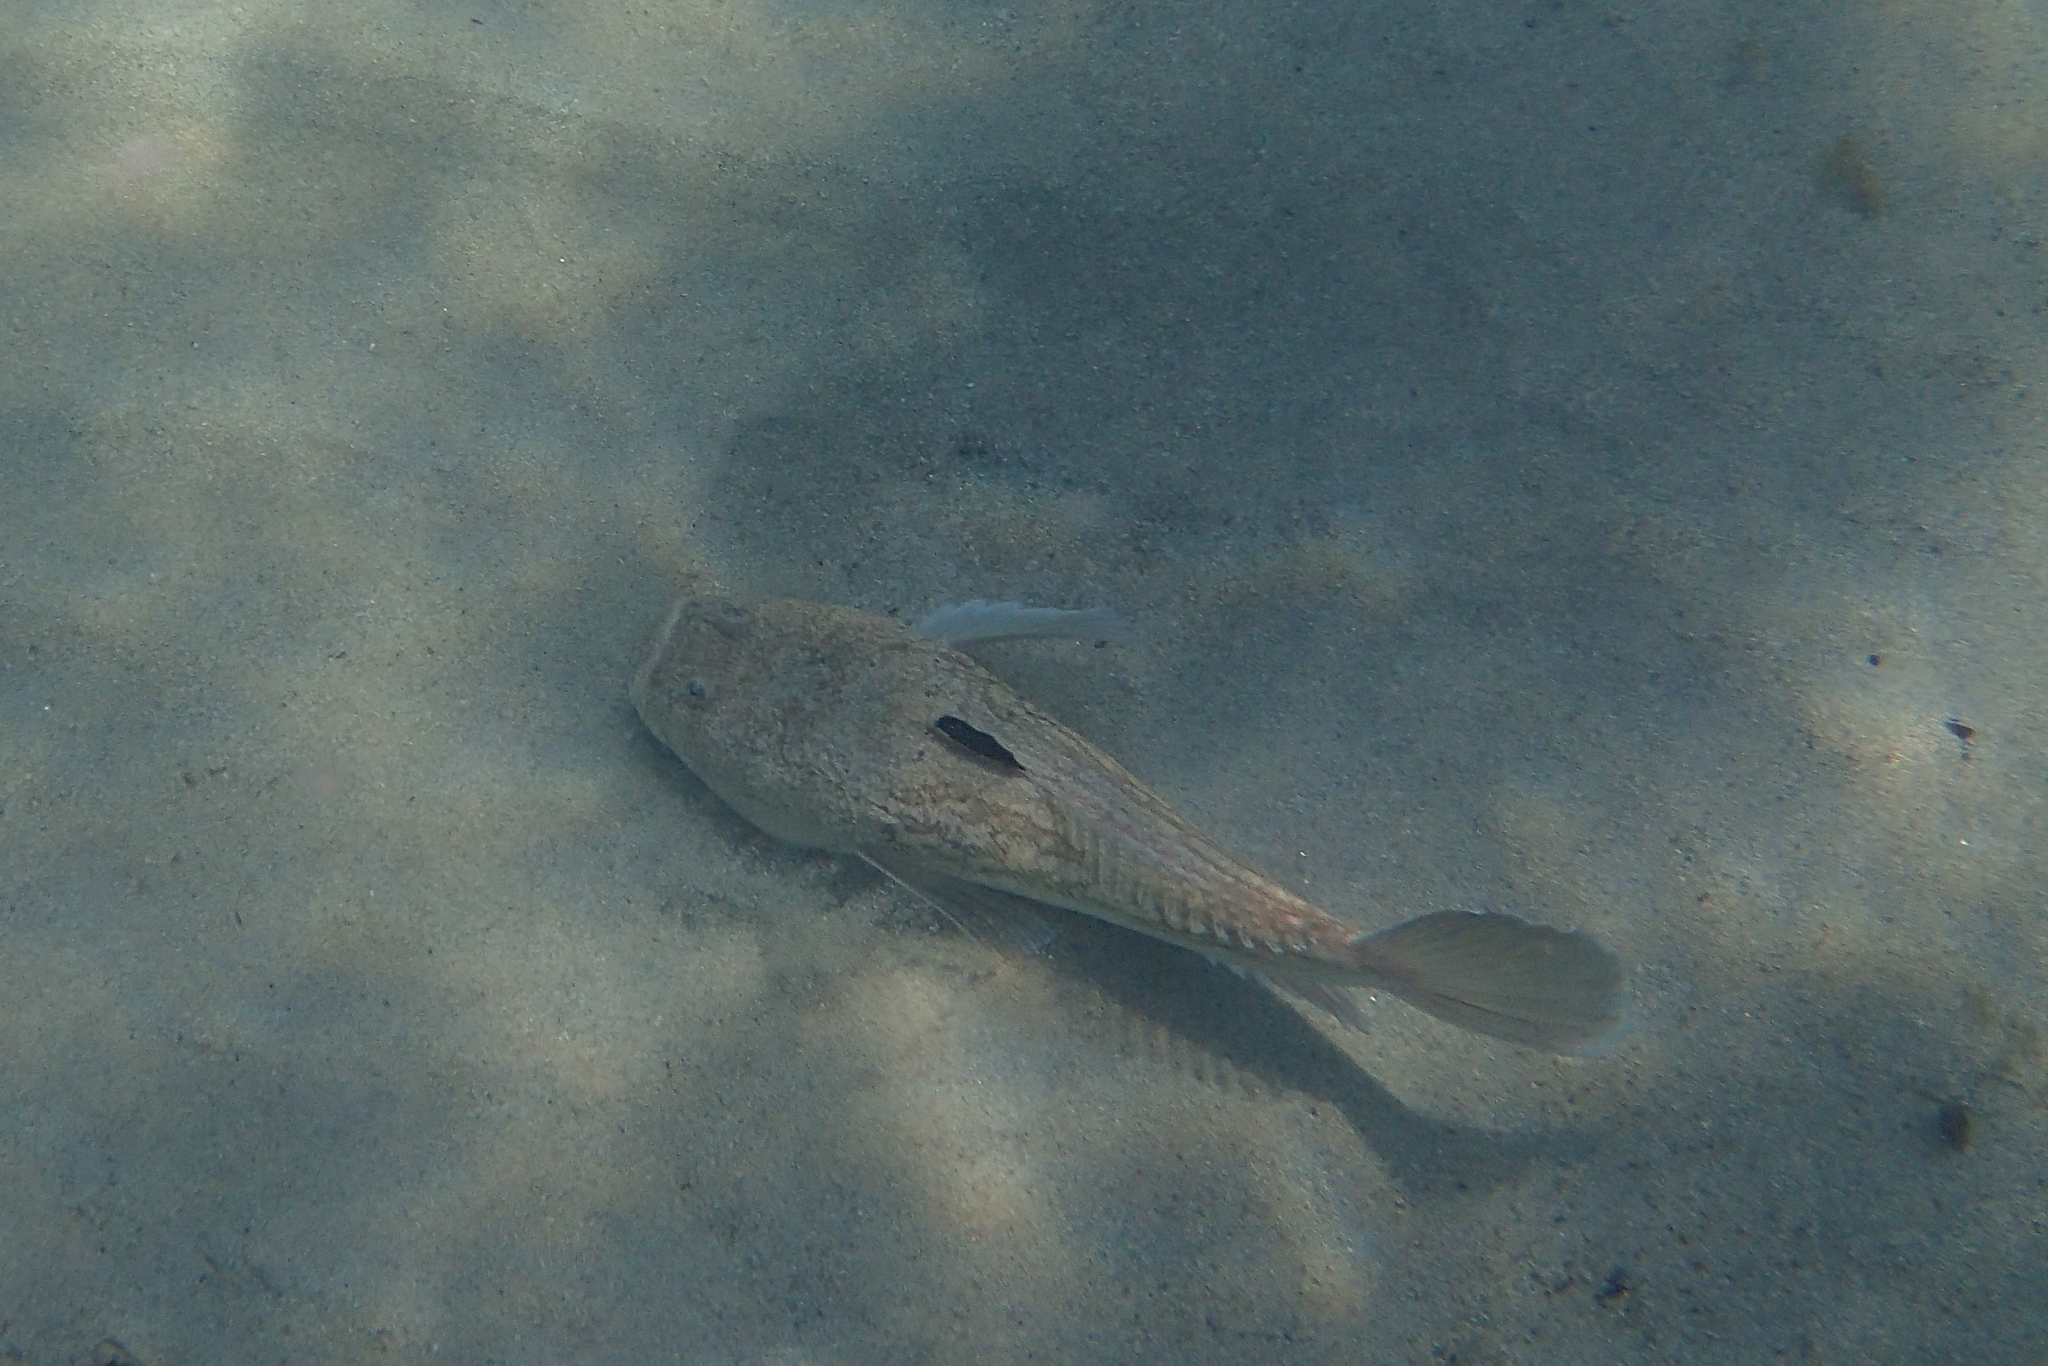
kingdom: Animalia
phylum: Chordata
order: Perciformes
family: Uranoscopidae
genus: Uranoscopus
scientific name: Uranoscopus scaber
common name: Stargazer
